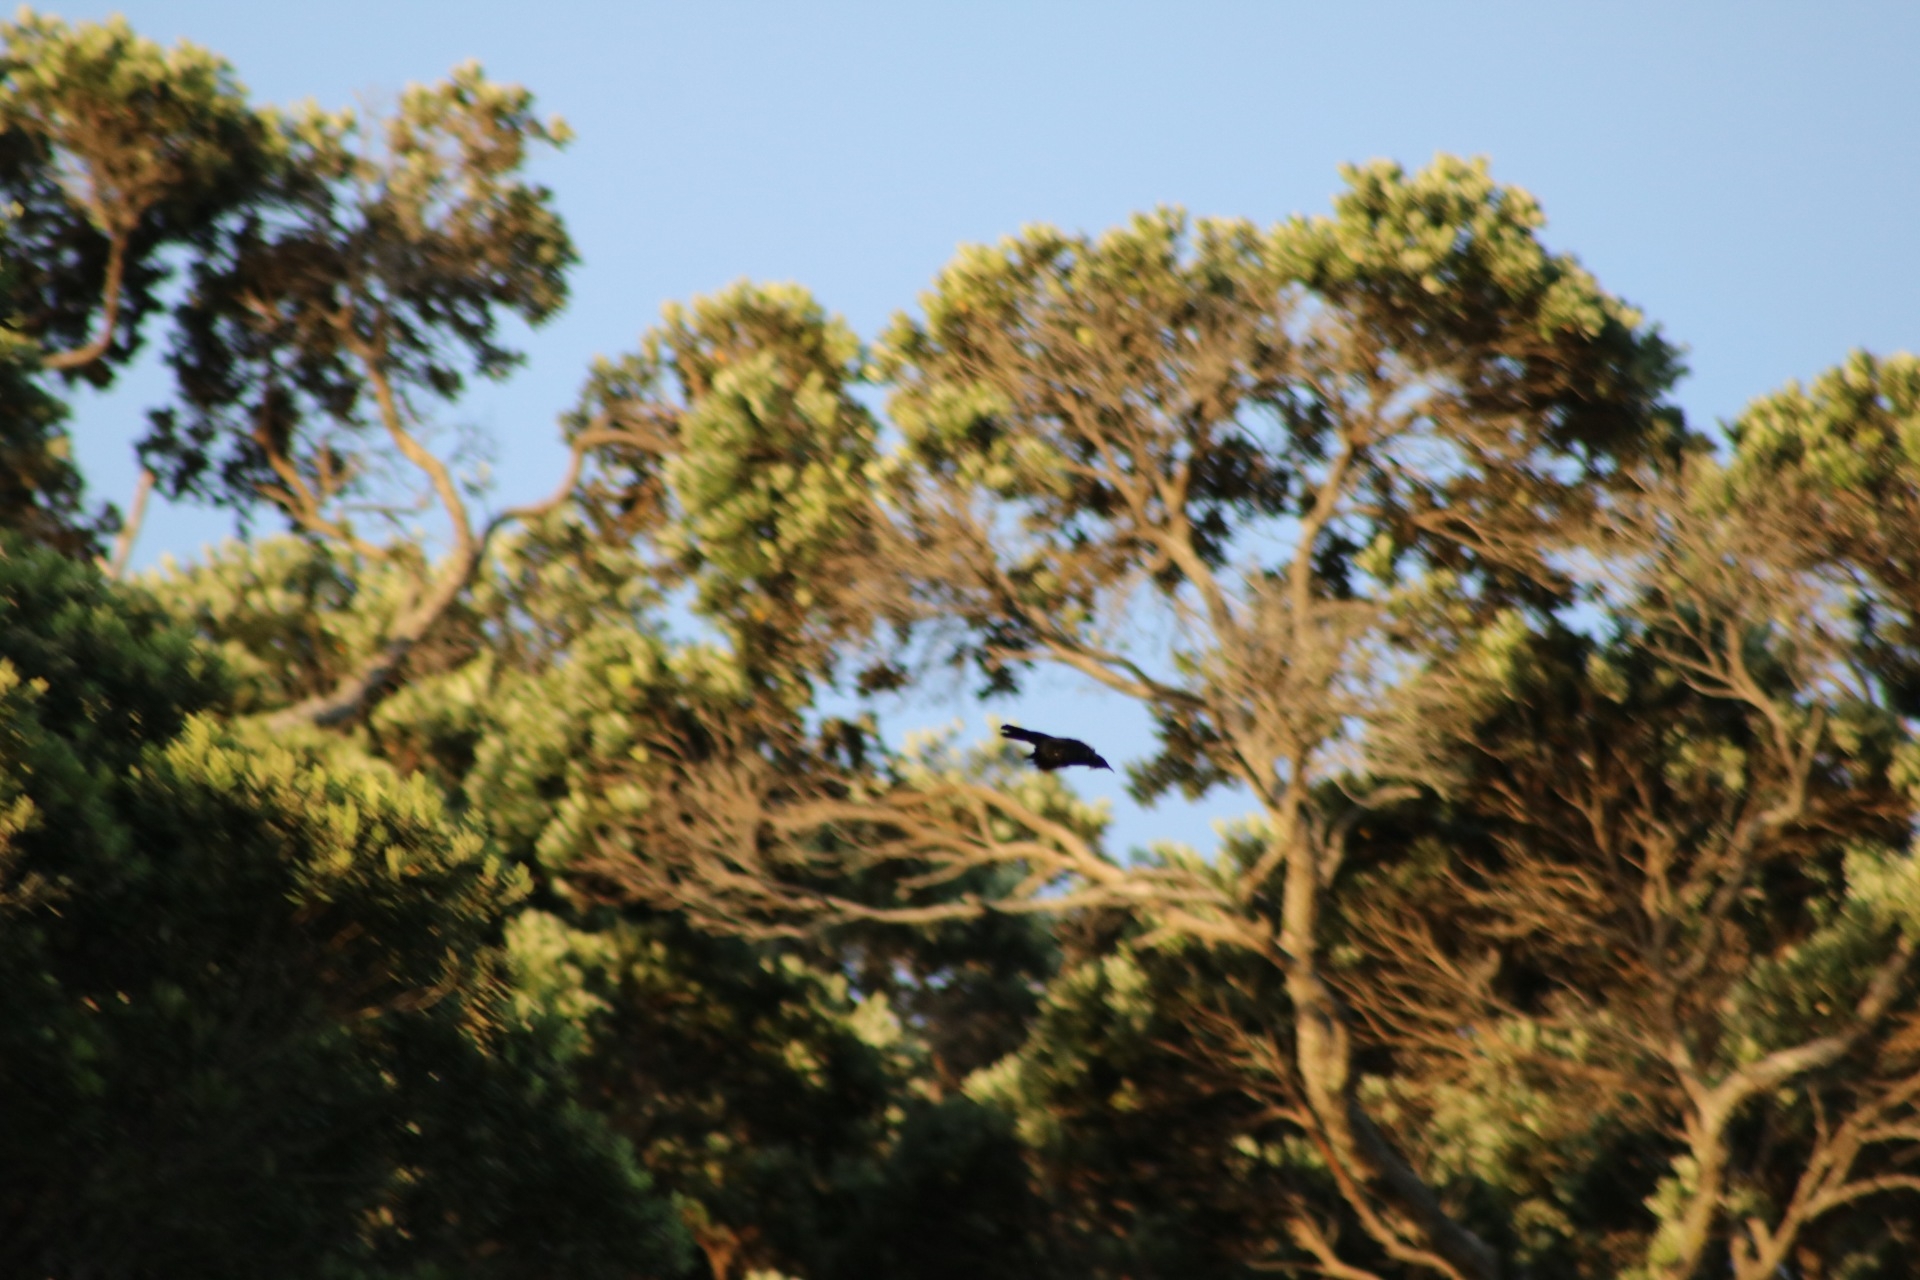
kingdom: Animalia
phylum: Chordata
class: Aves
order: Passeriformes
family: Meliphagidae
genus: Prosthemadera
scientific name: Prosthemadera novaeseelandiae
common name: Tui
